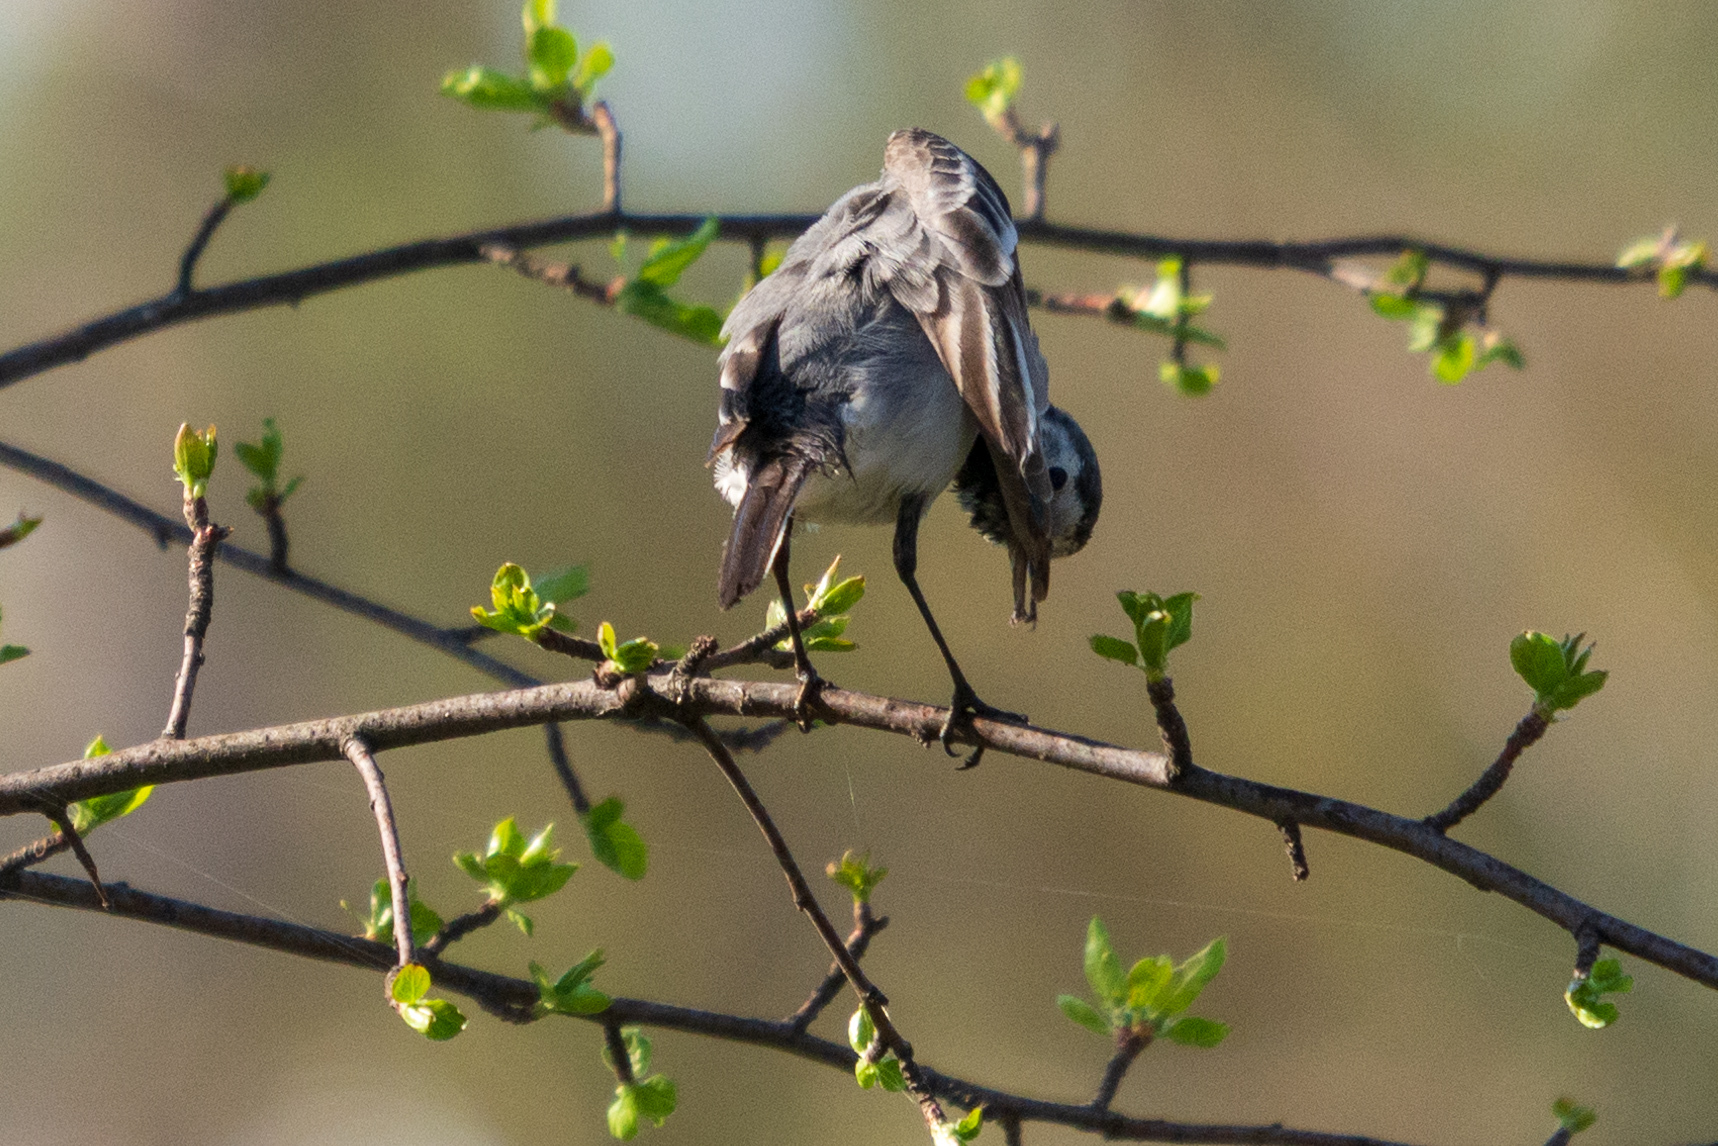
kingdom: Animalia
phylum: Chordata
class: Aves
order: Passeriformes
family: Motacillidae
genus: Motacilla
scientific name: Motacilla alba
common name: White wagtail
